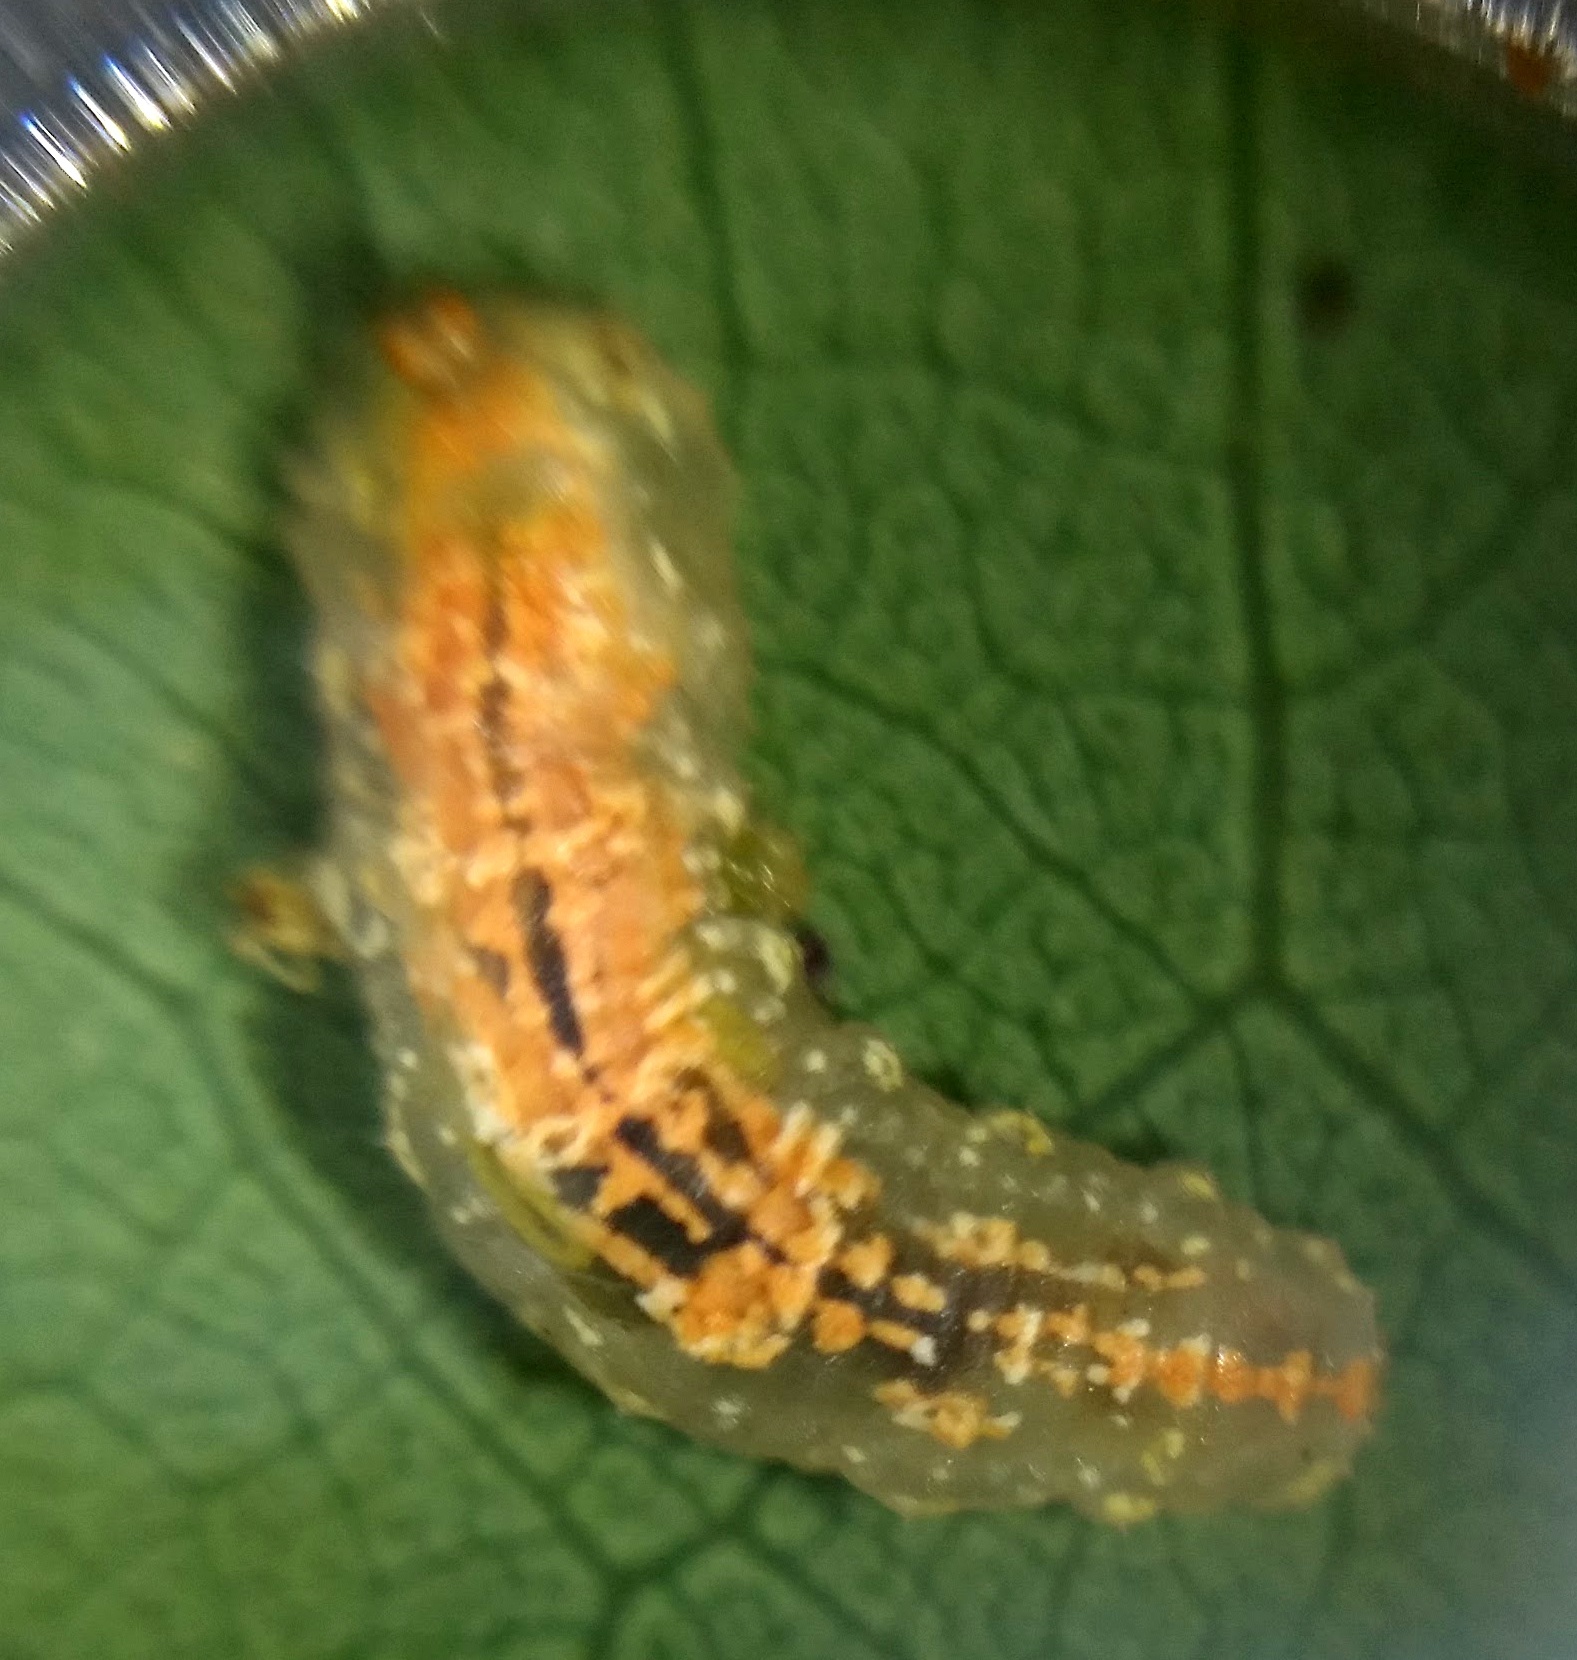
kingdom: Animalia
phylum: Arthropoda
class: Insecta
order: Diptera
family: Syrphidae
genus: Syrphus
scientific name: Syrphus
